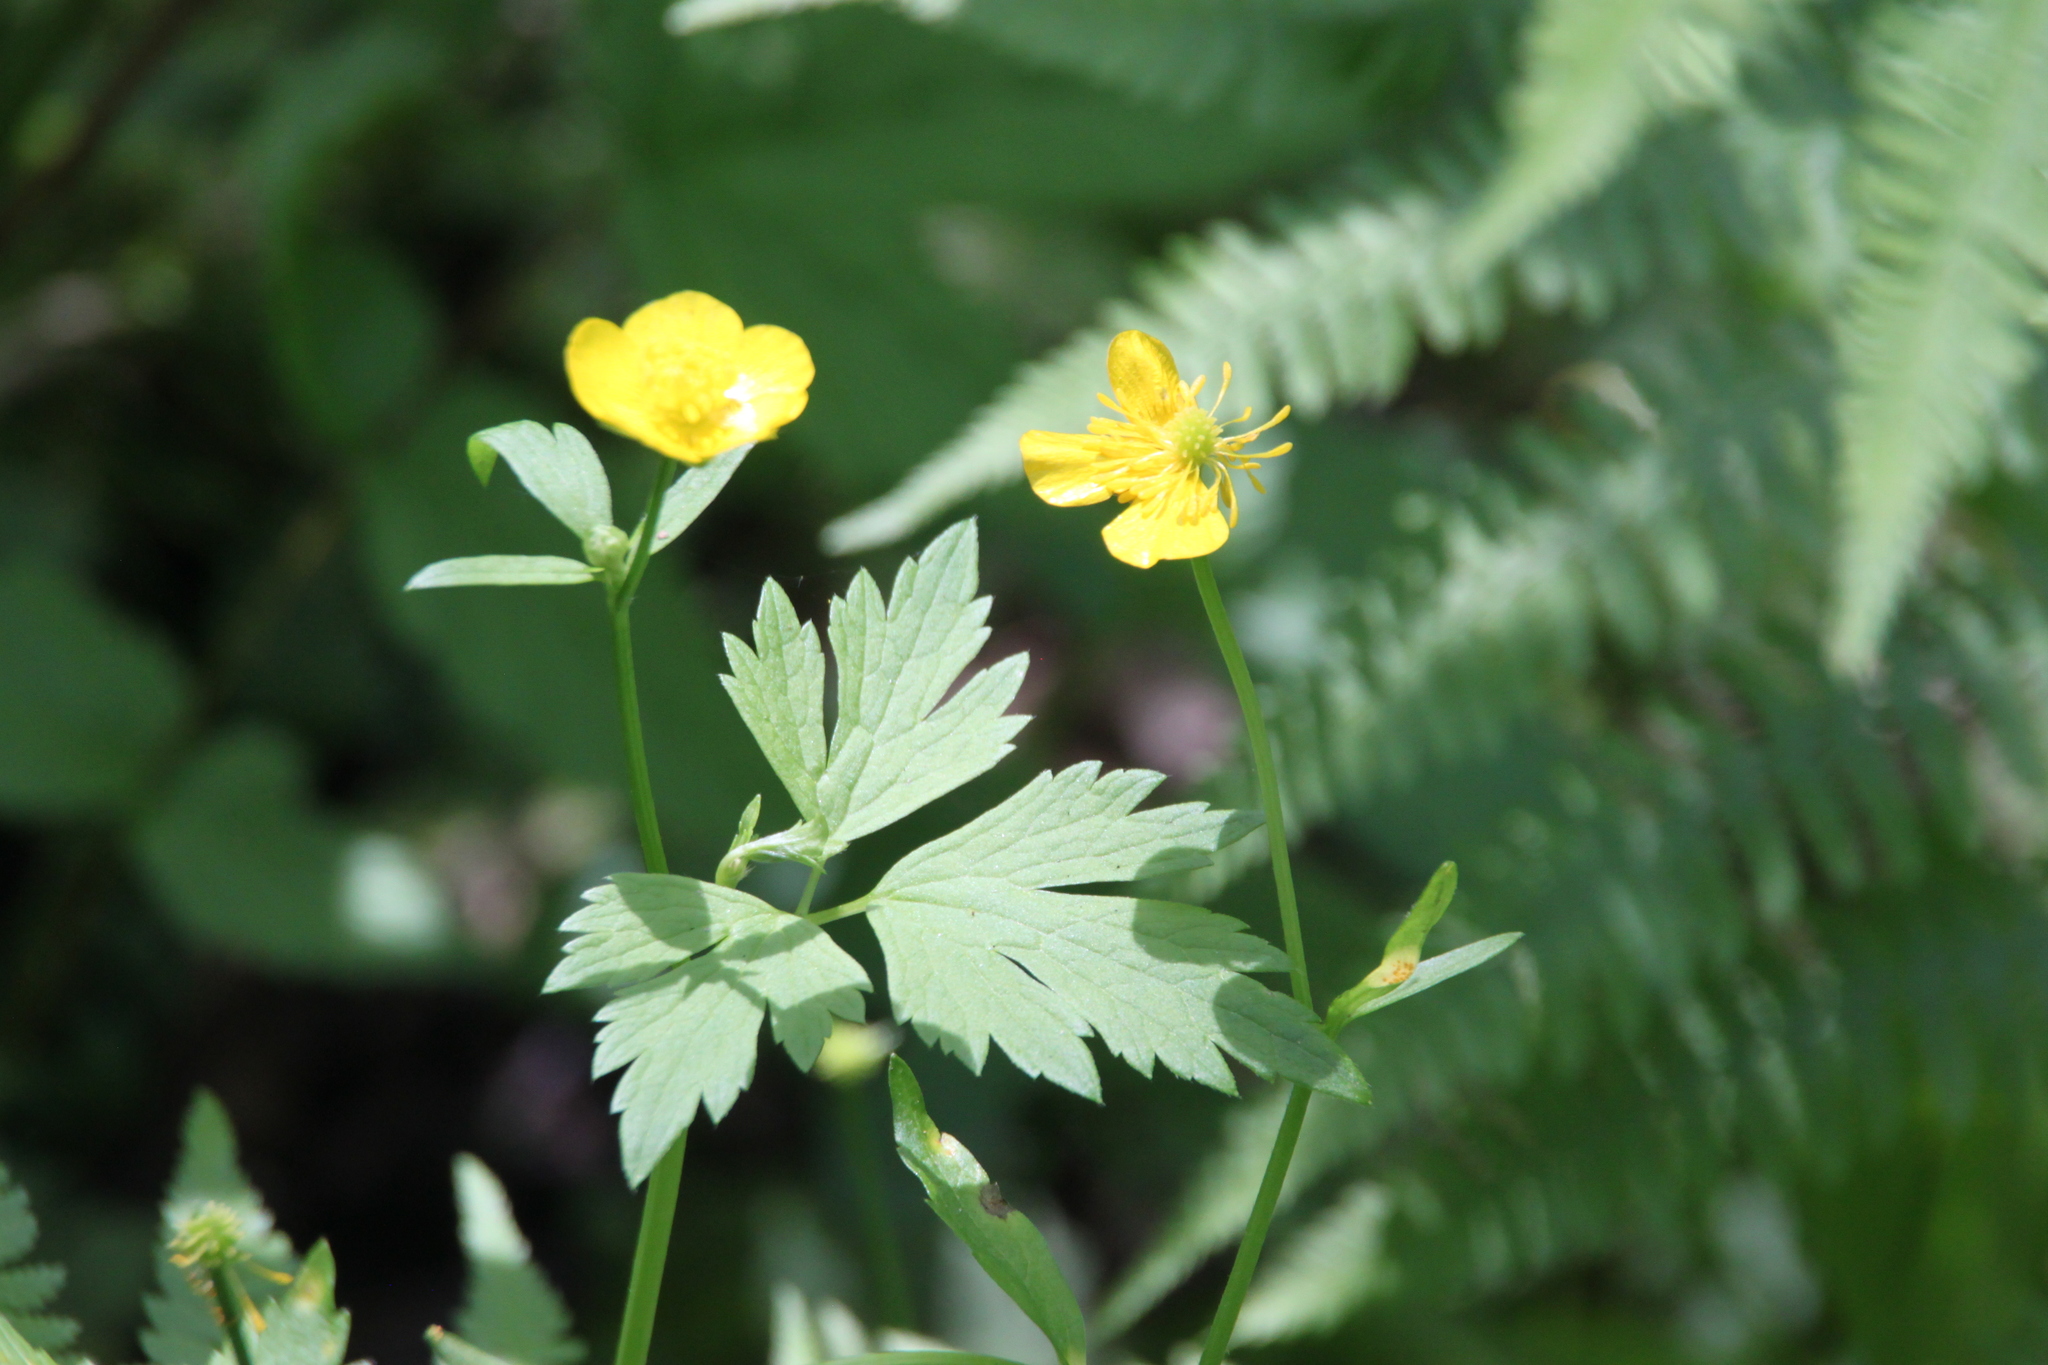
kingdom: Plantae
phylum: Tracheophyta
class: Magnoliopsida
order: Ranunculales
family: Ranunculaceae
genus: Ranunculus
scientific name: Ranunculus repens
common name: Creeping buttercup
